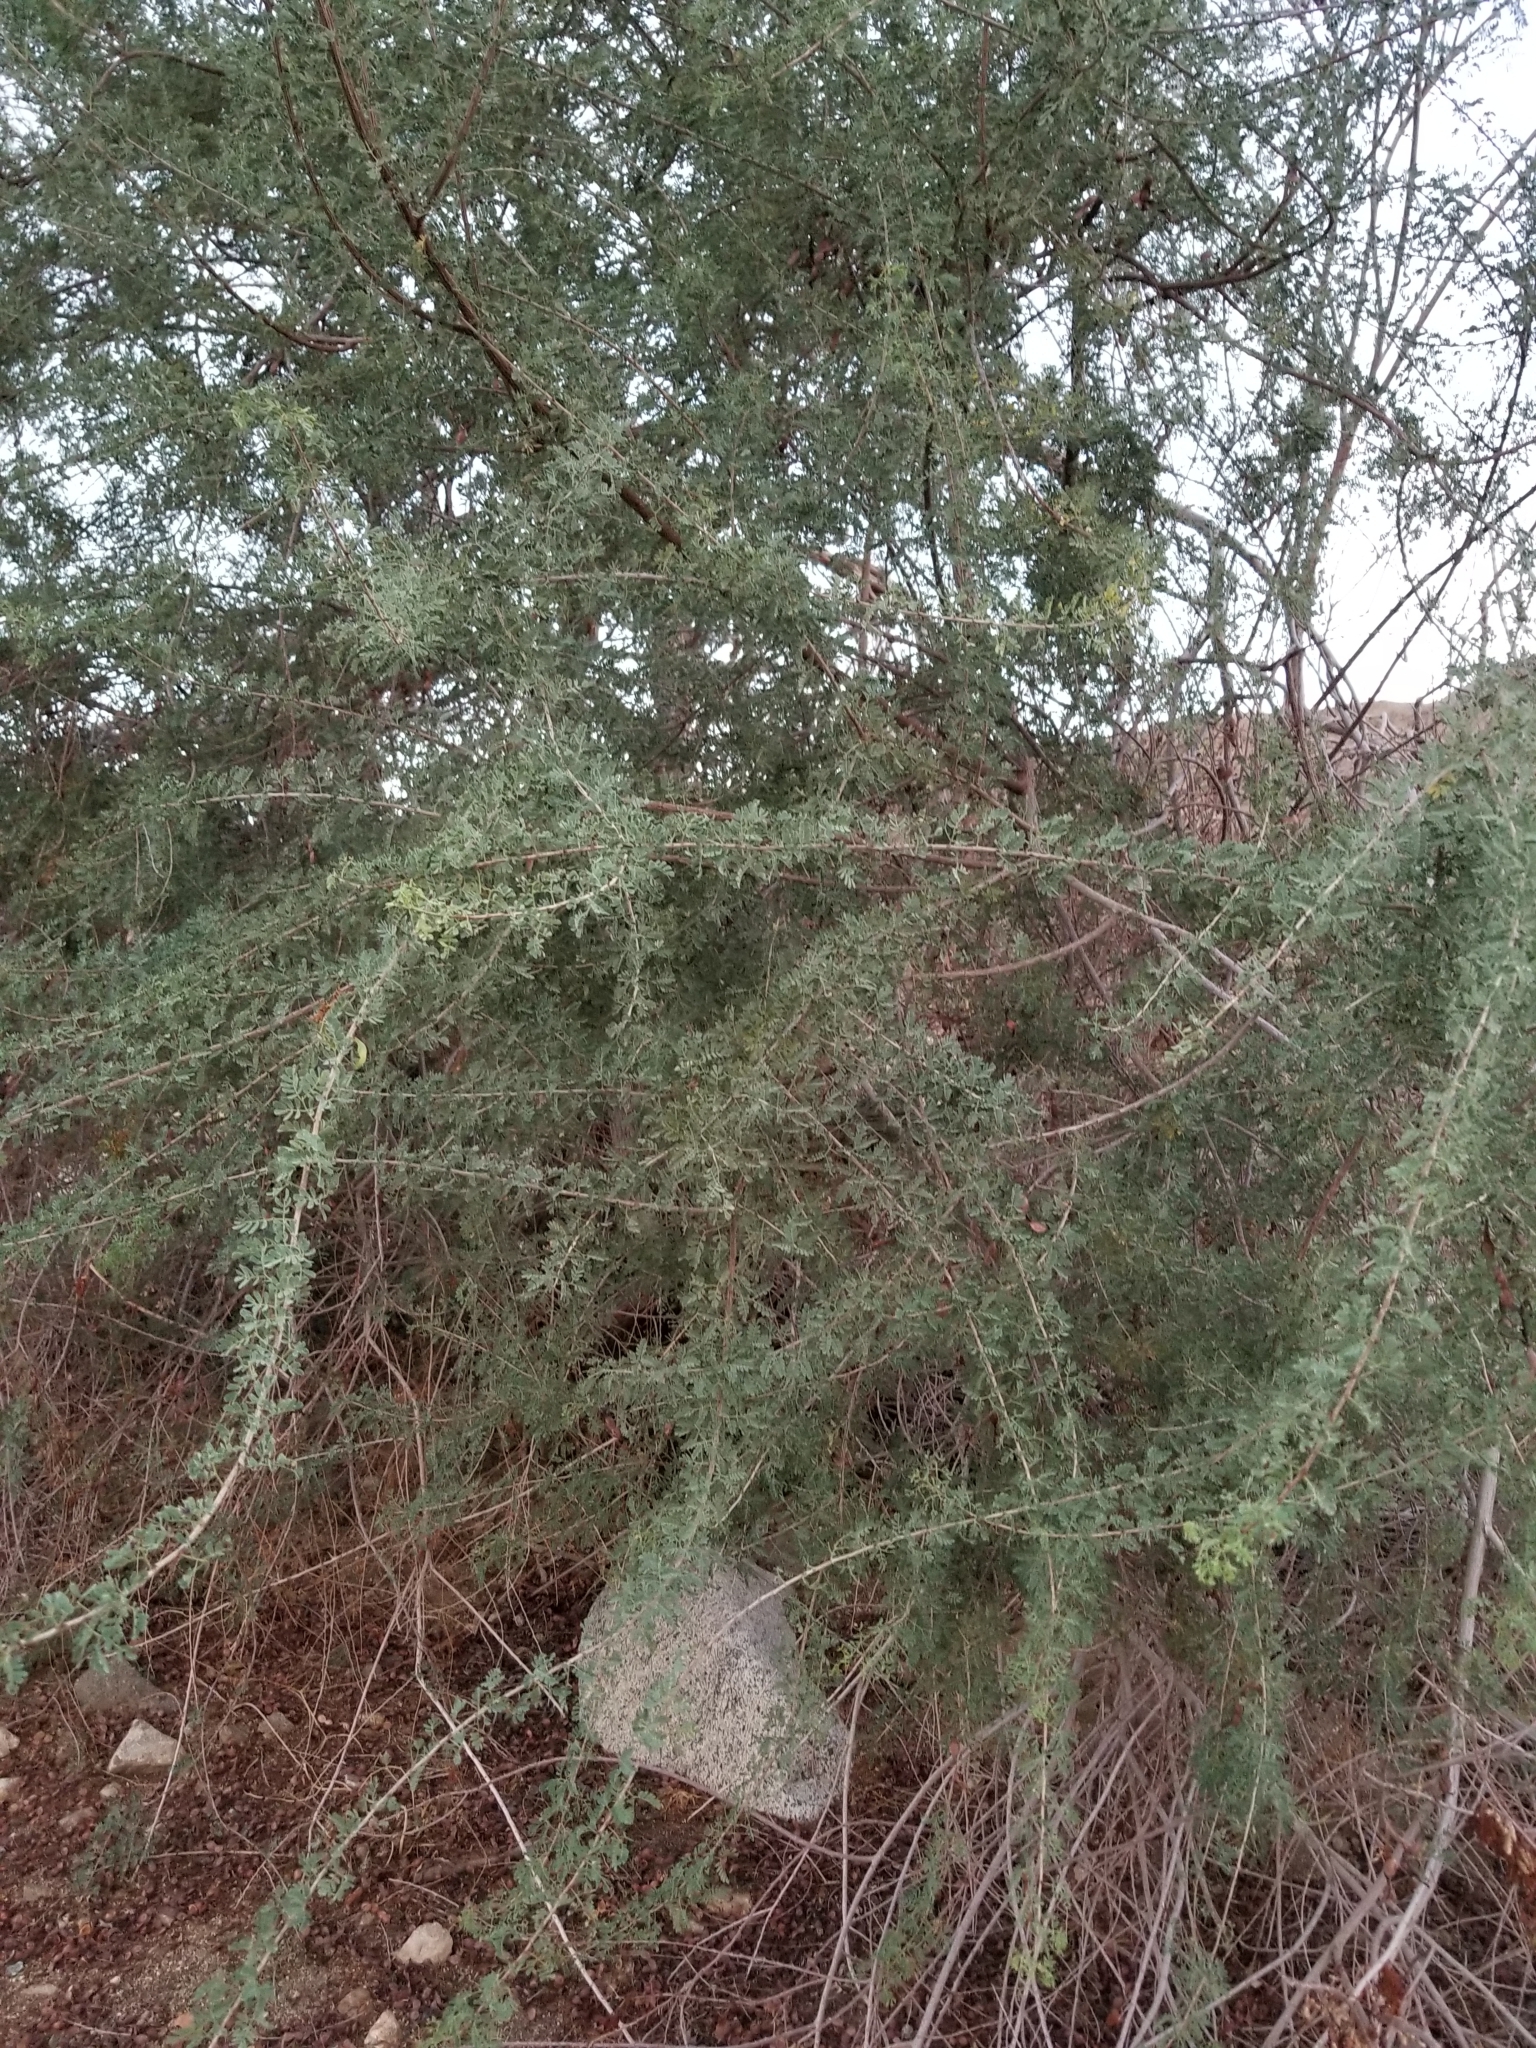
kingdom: Plantae
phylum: Tracheophyta
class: Magnoliopsida
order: Fabales
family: Fabaceae
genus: Senegalia
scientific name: Senegalia greggii
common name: Texas-mimosa
